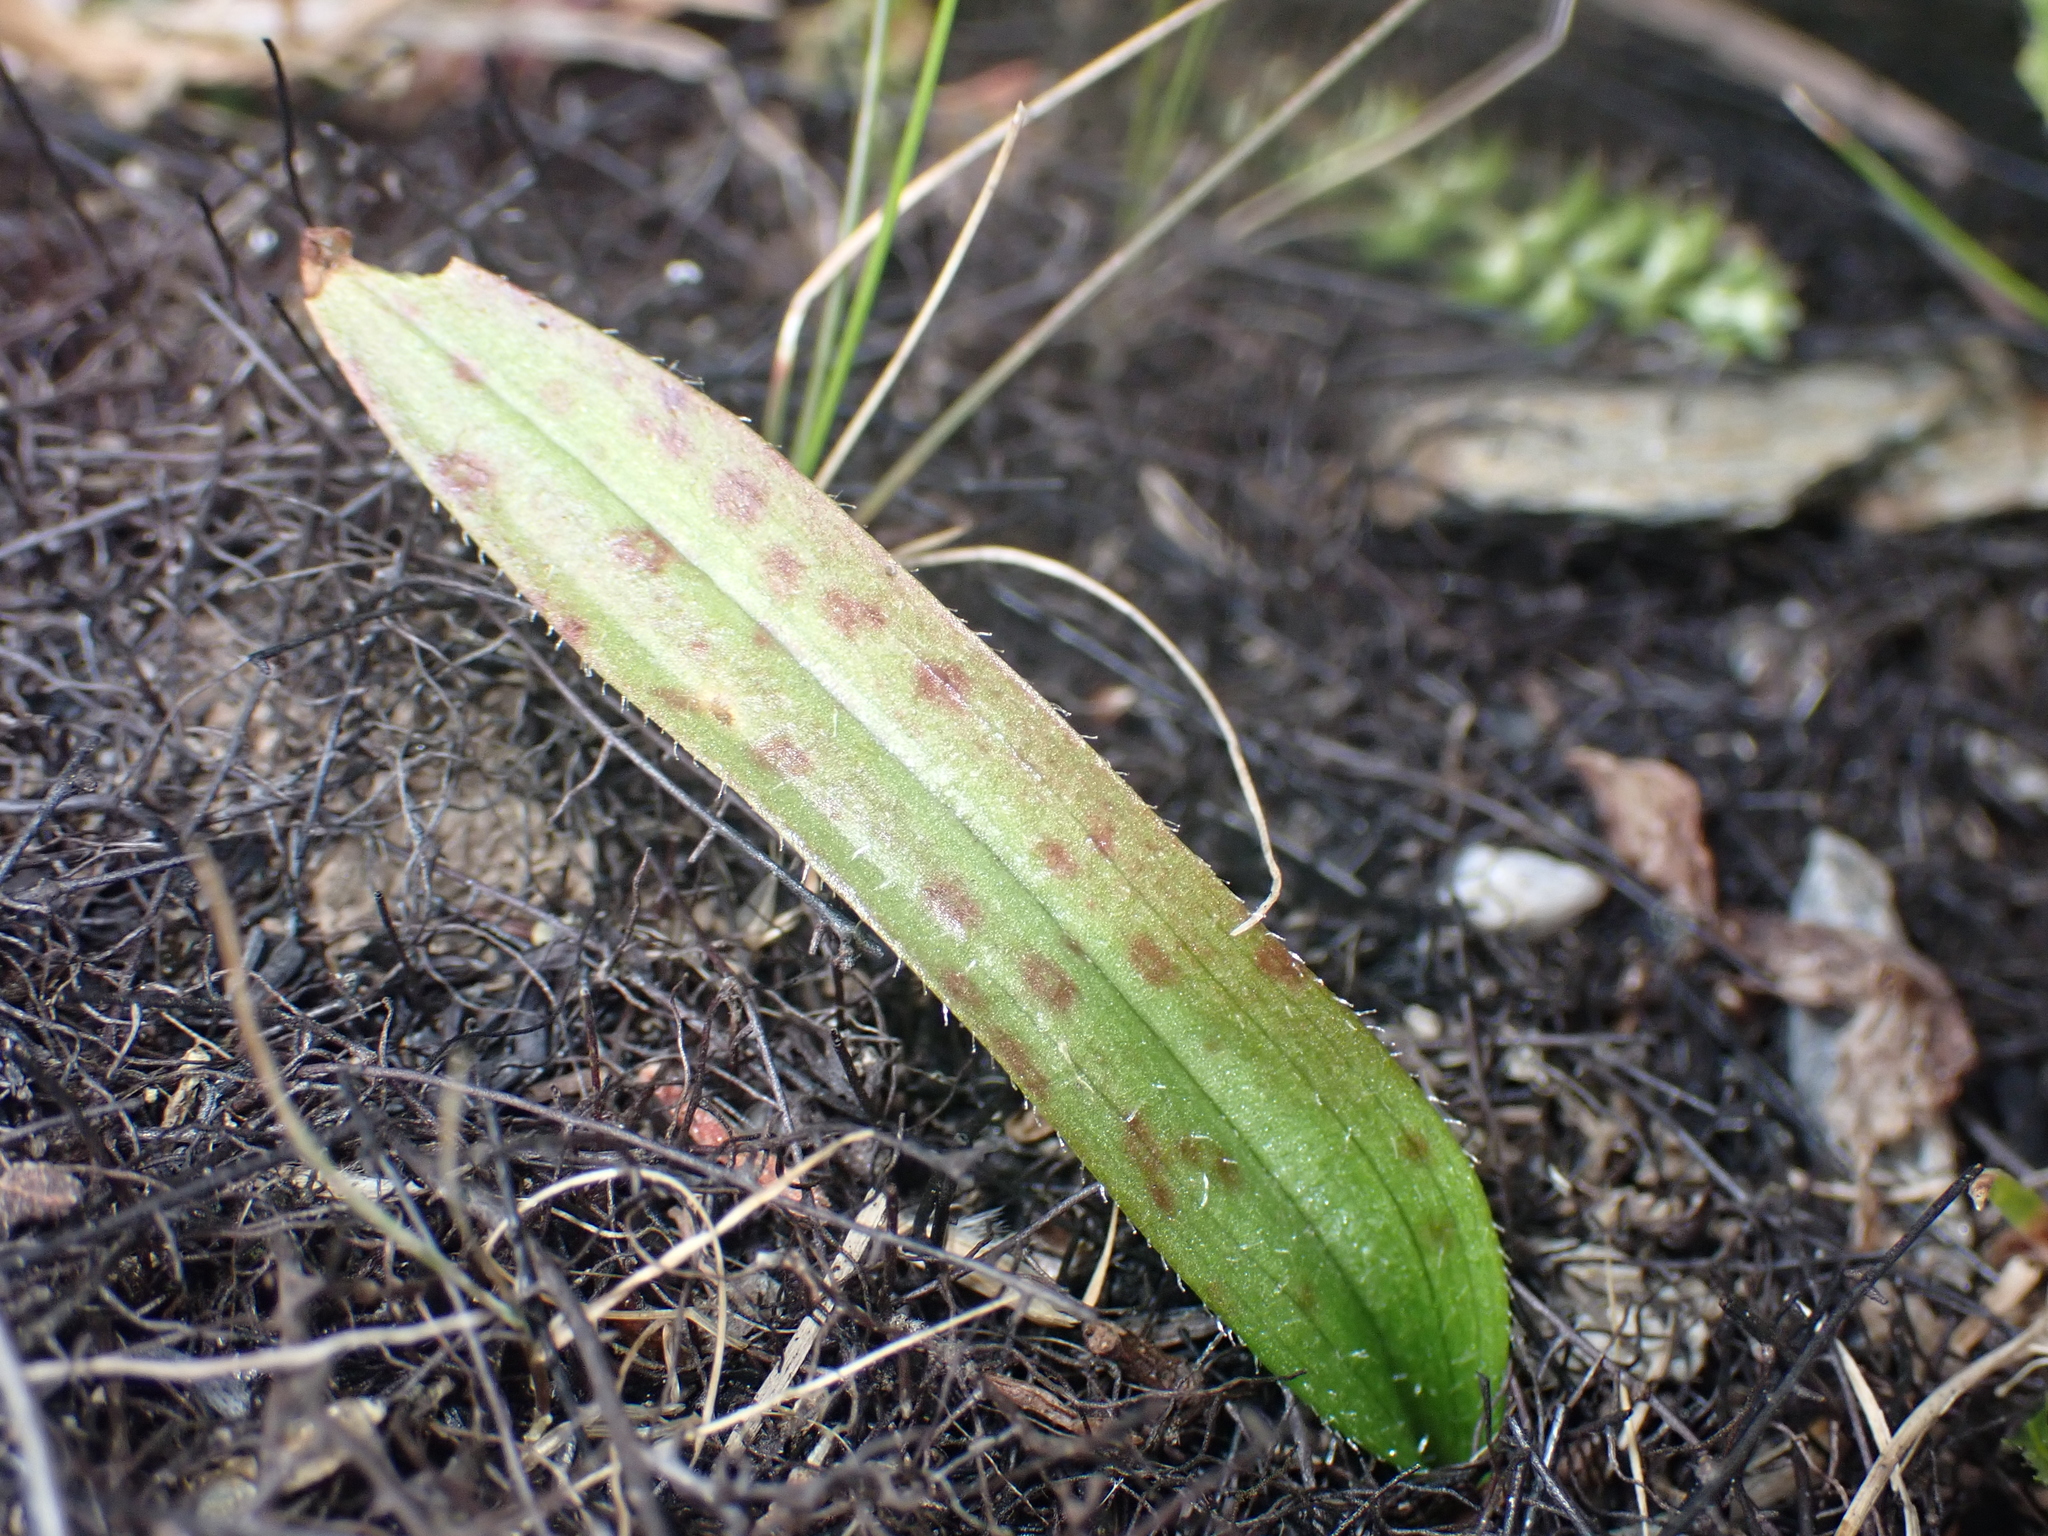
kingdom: Plantae
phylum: Tracheophyta
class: Liliopsida
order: Asparagales
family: Orchidaceae
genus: Aporostylis
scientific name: Aporostylis bifolia
